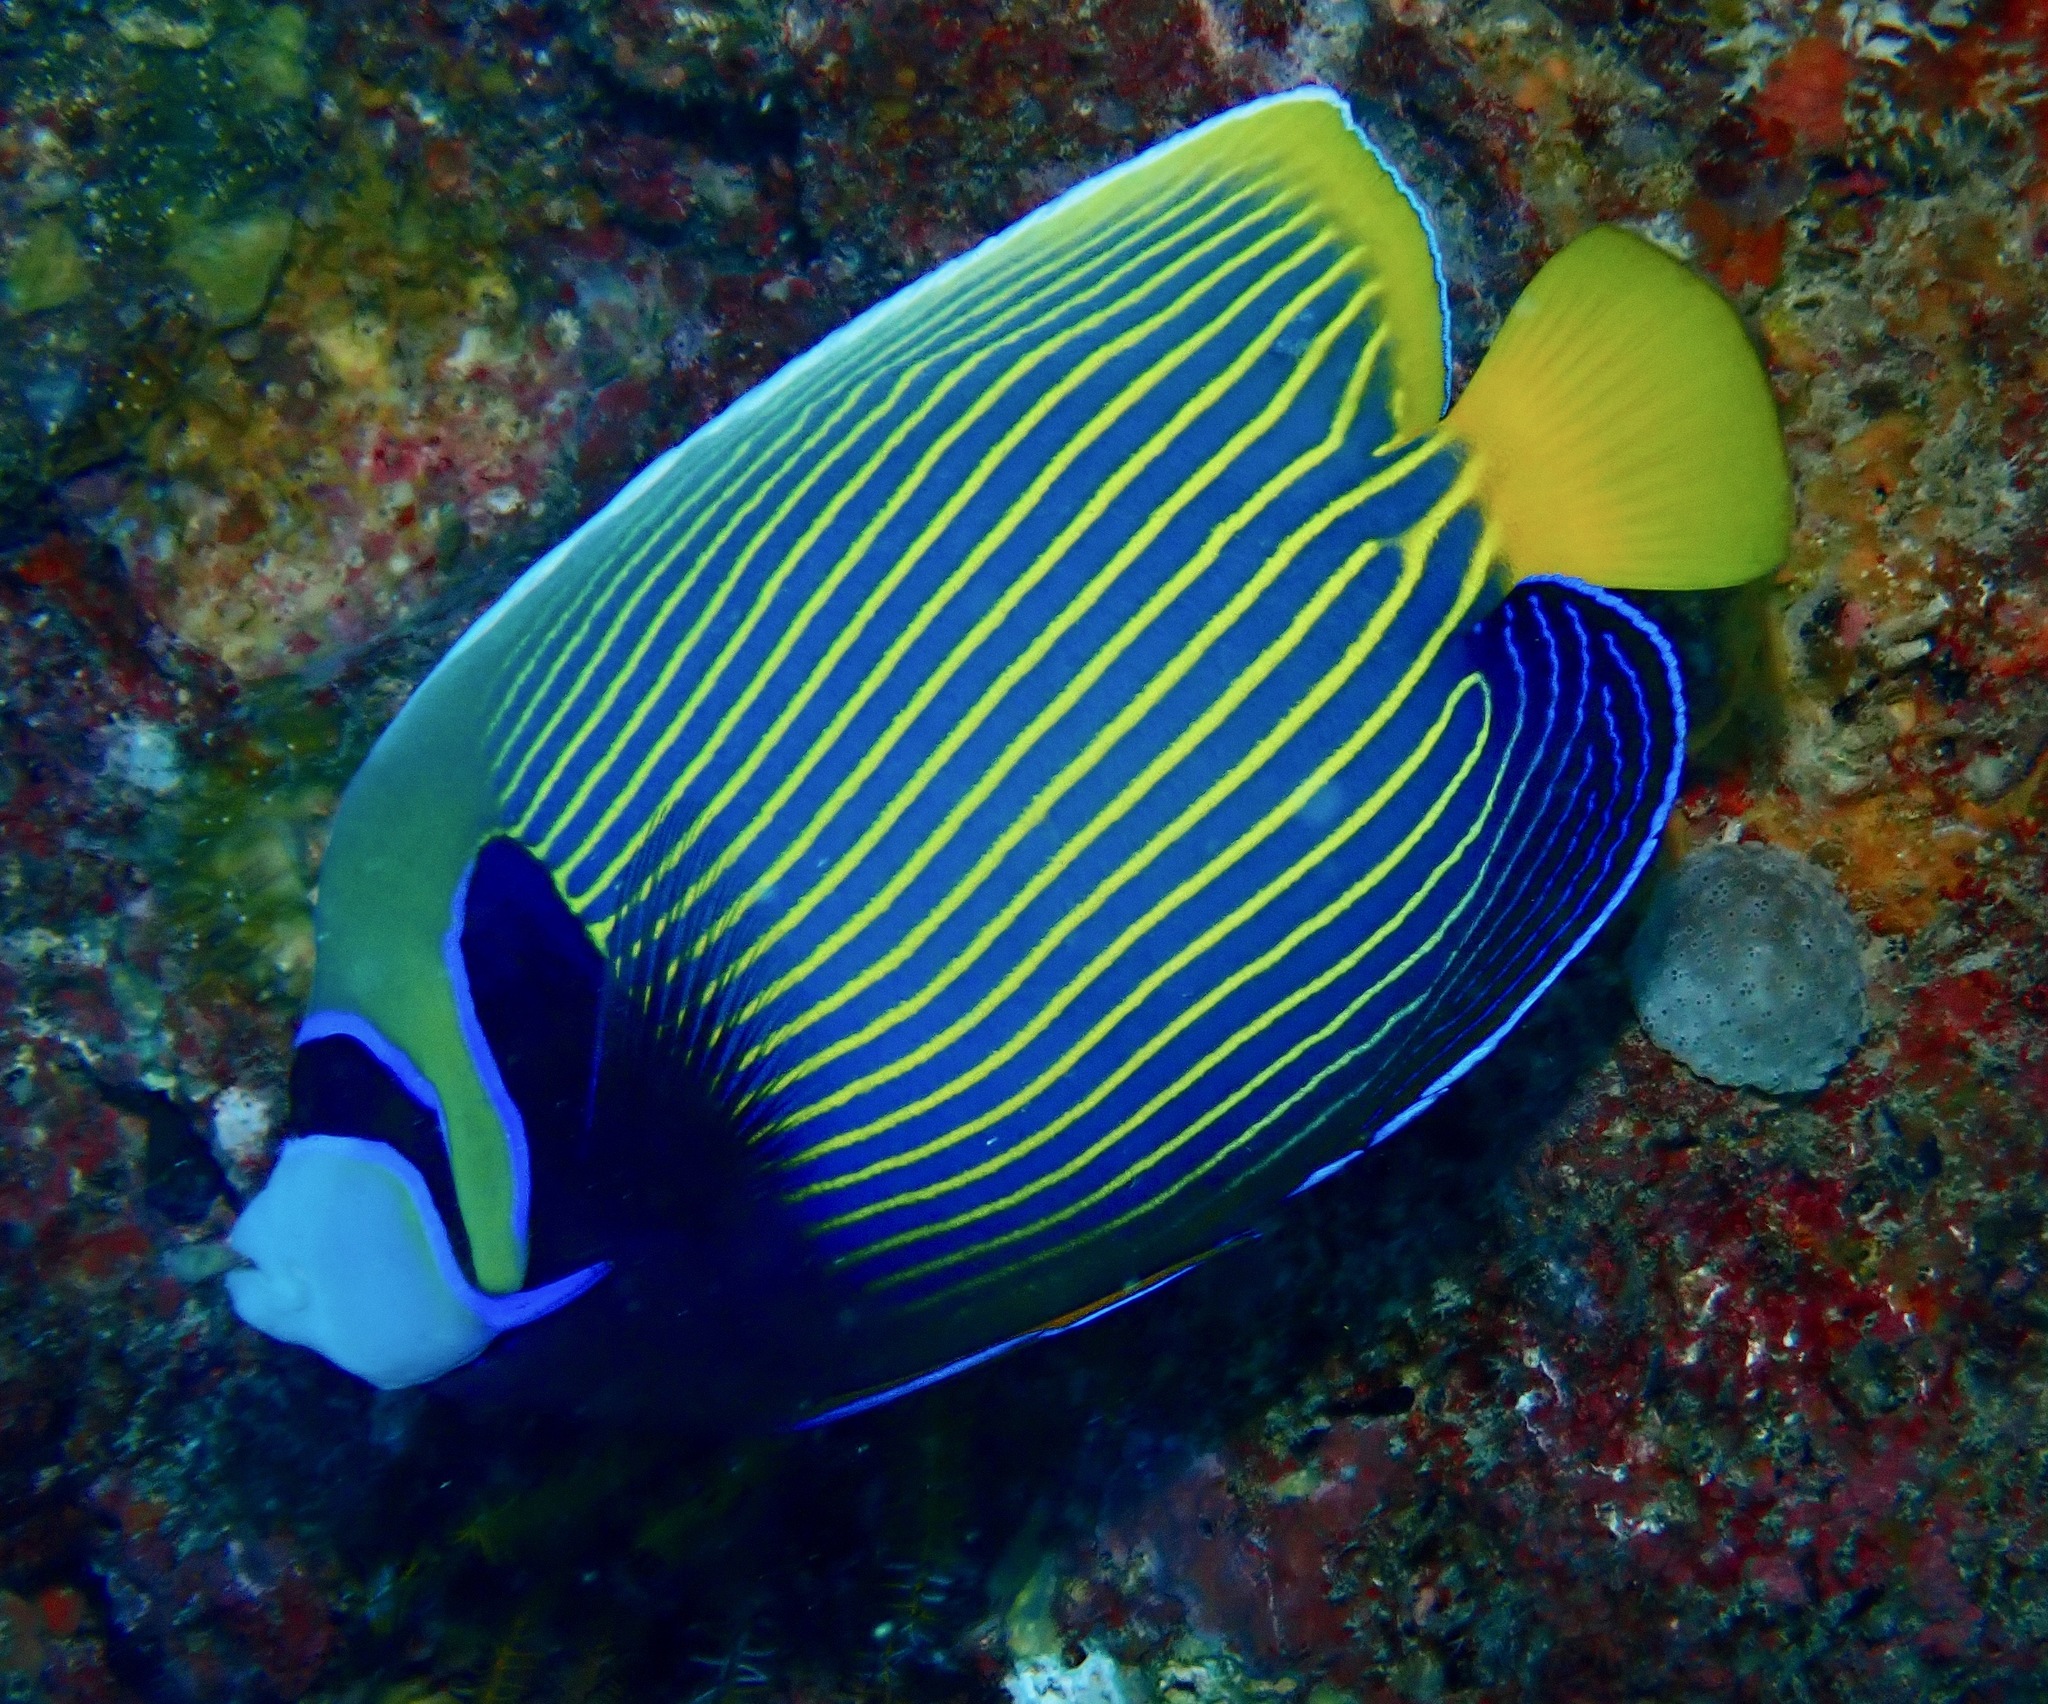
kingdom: Animalia
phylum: Chordata
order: Perciformes
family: Pomacanthidae
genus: Pomacanthus
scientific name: Pomacanthus imperator
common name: Emperor angelfish
